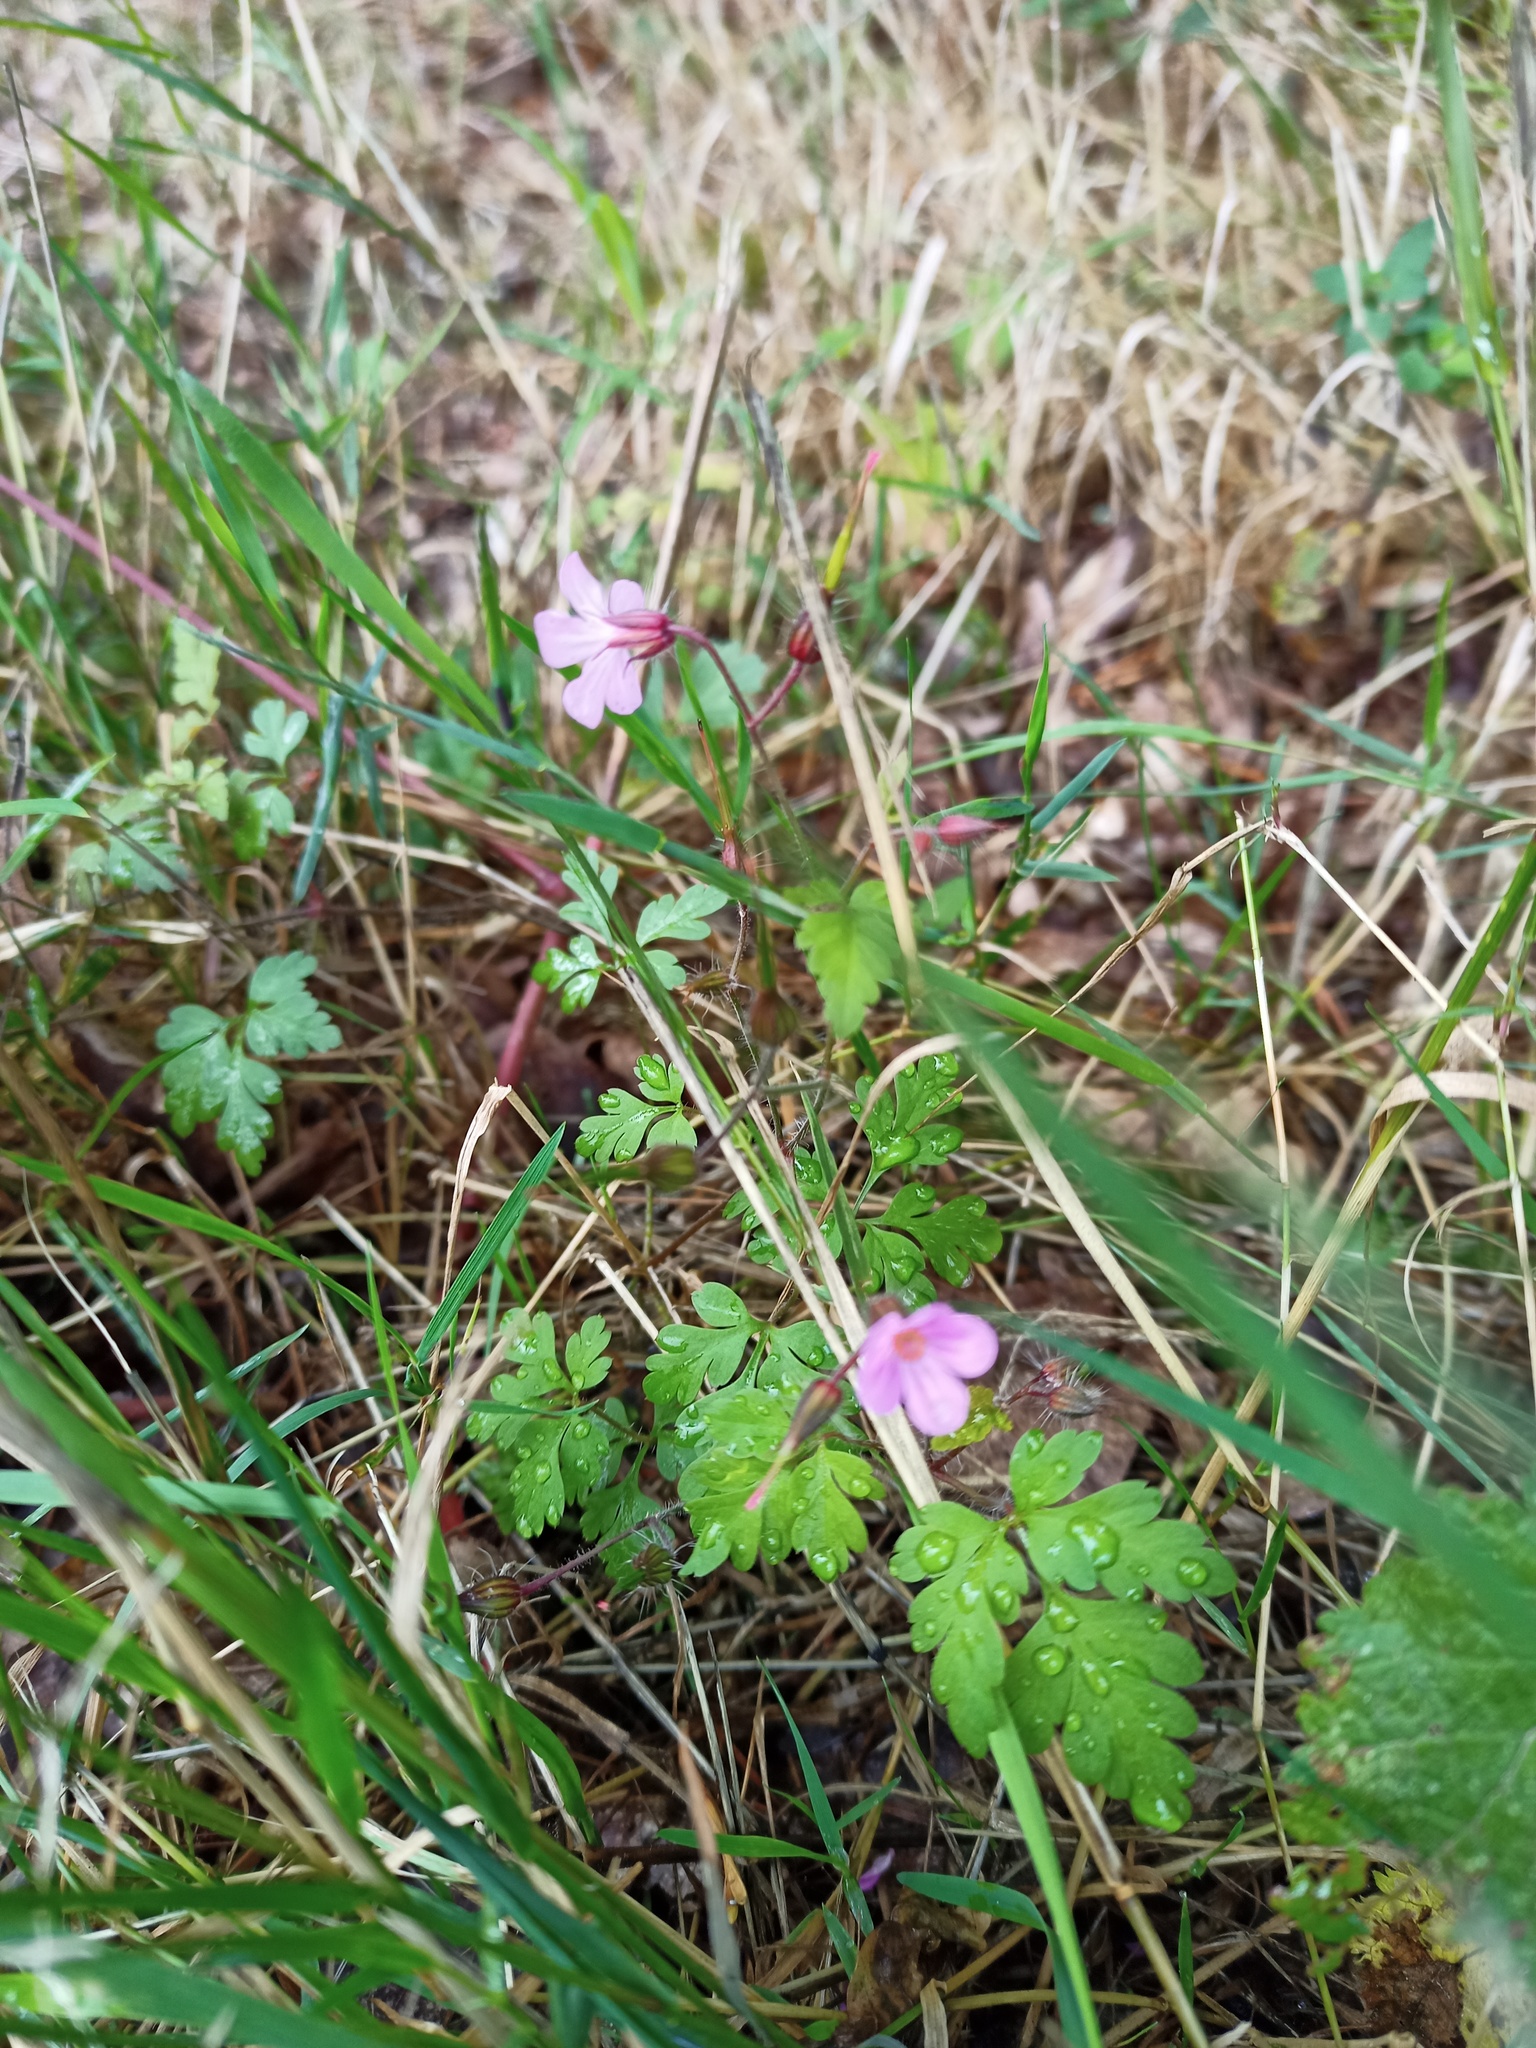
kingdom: Plantae
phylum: Tracheophyta
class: Magnoliopsida
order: Geraniales
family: Geraniaceae
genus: Geranium
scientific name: Geranium robertianum
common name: Herb-robert
